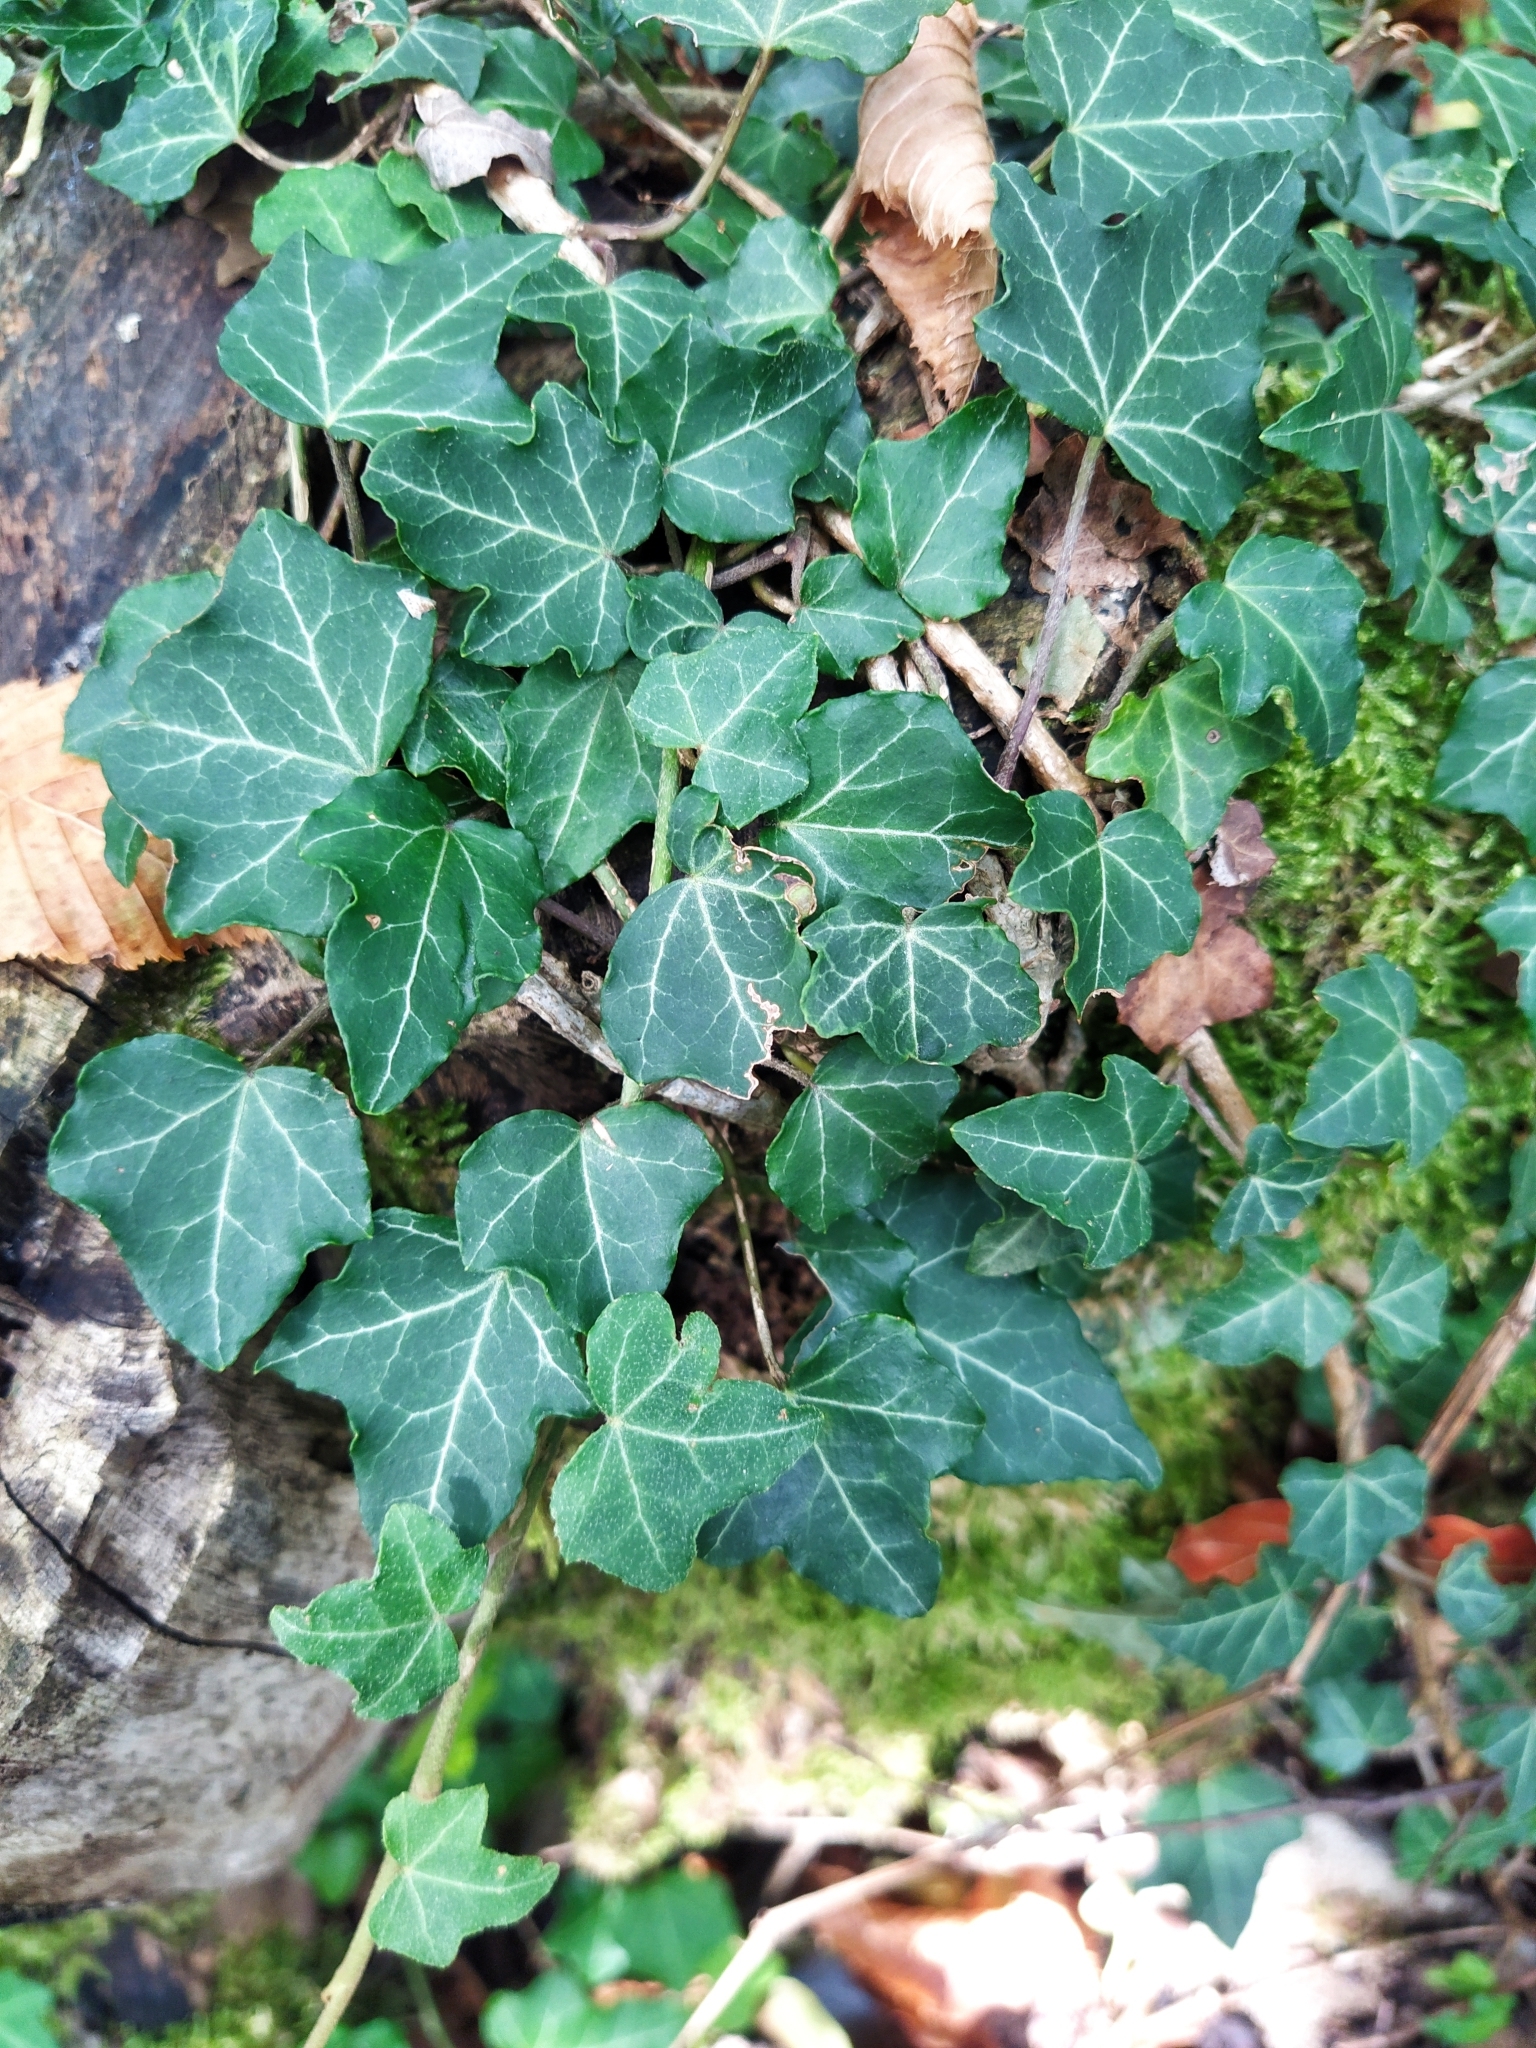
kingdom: Plantae
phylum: Tracheophyta
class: Magnoliopsida
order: Apiales
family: Araliaceae
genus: Hedera
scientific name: Hedera helix
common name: Ivy
